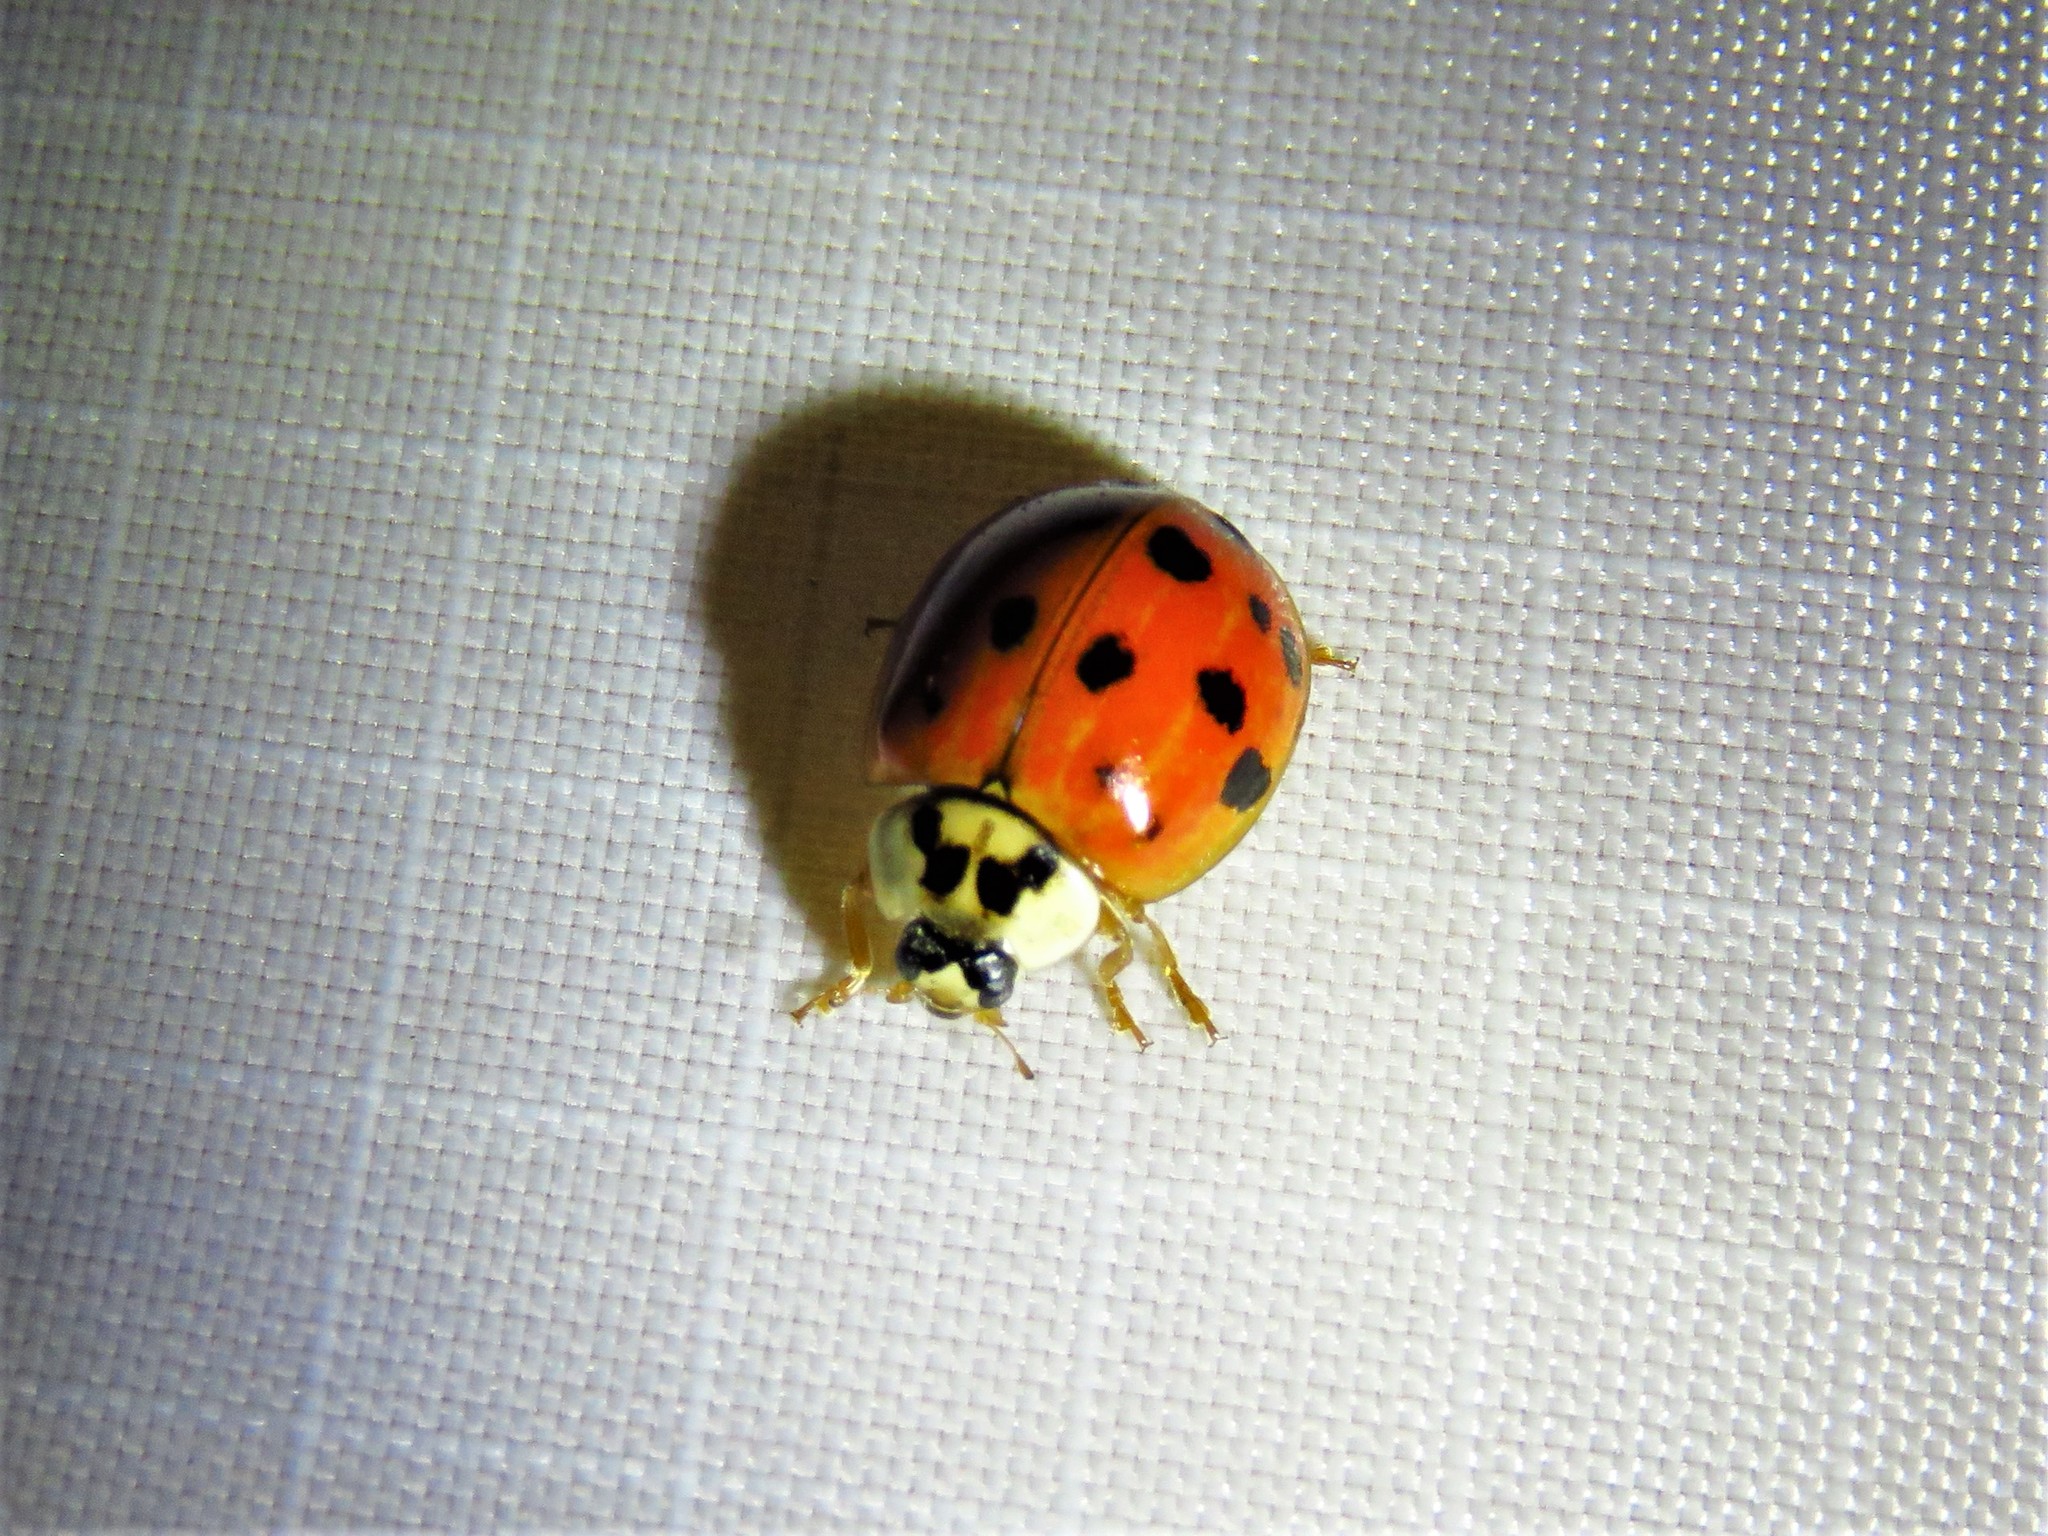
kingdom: Animalia
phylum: Arthropoda
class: Insecta
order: Coleoptera
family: Coccinellidae
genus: Harmonia
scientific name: Harmonia axyridis
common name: Harlequin ladybird
